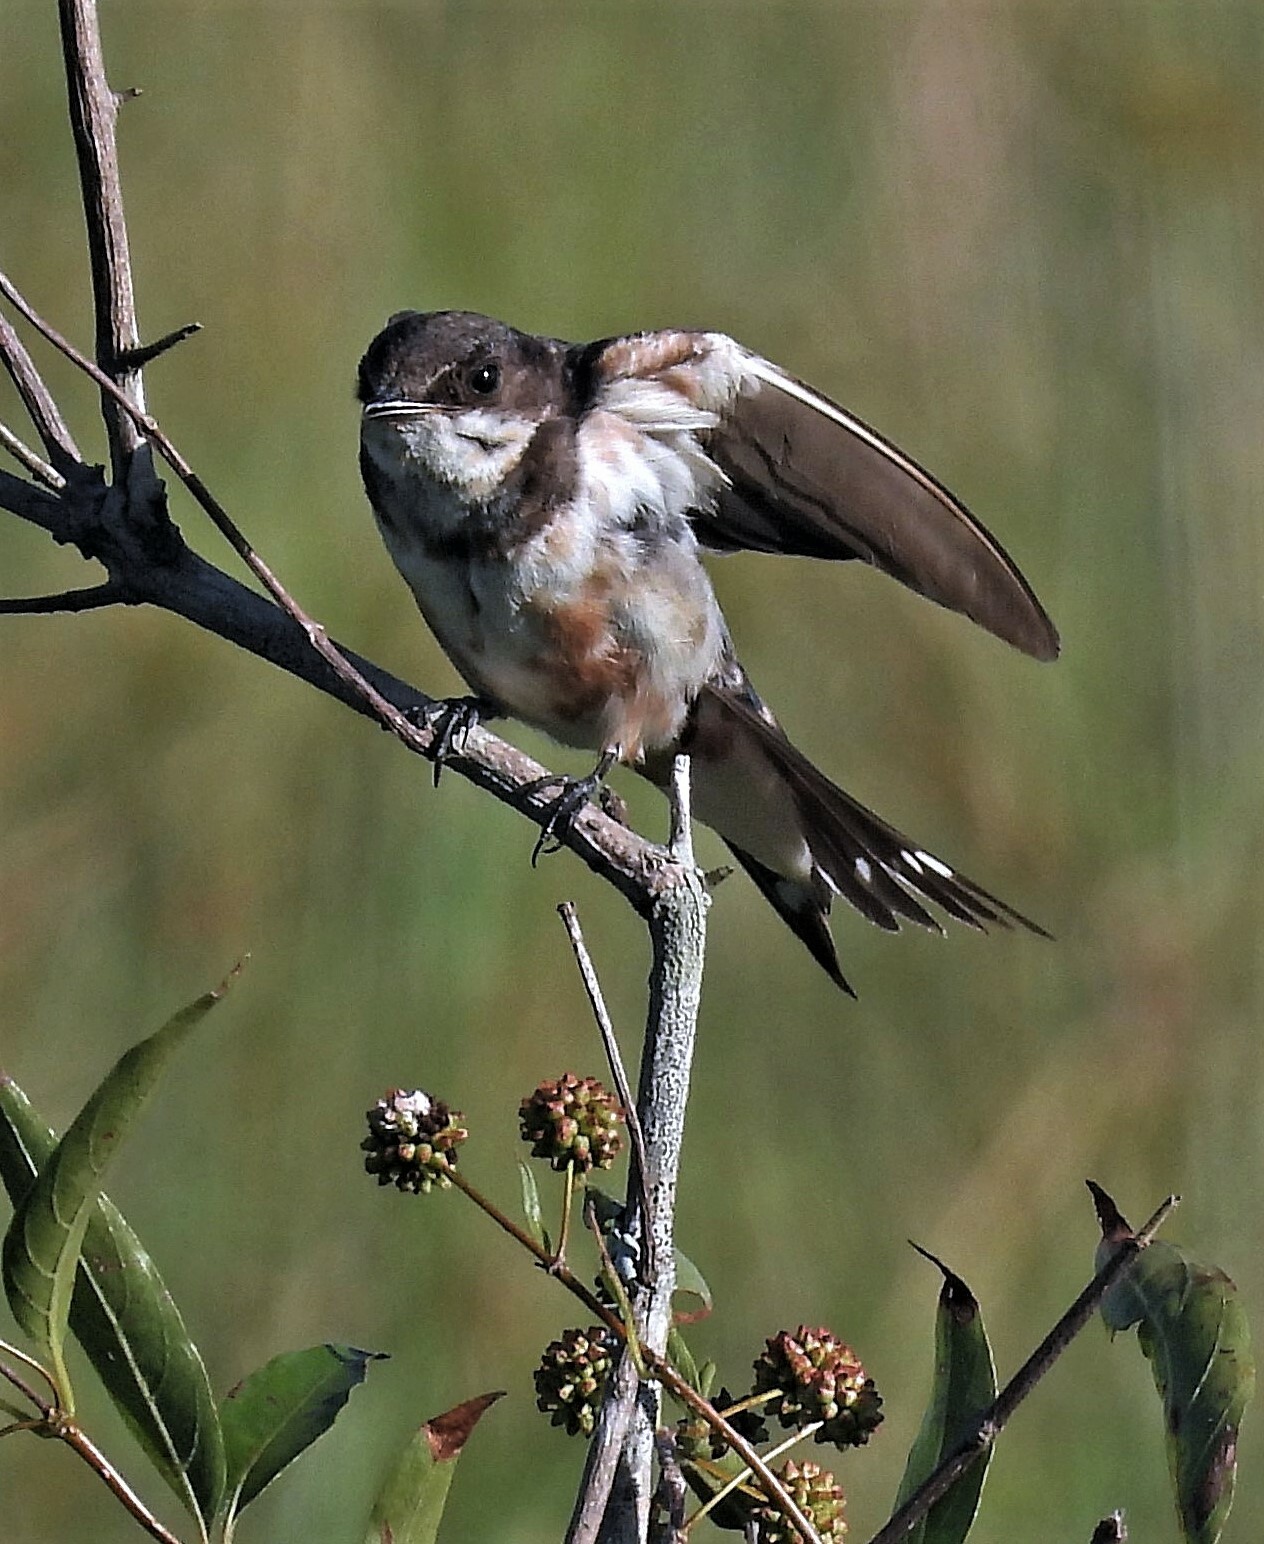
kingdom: Animalia
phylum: Chordata
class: Aves
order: Passeriformes
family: Hirundinidae
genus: Hirundo
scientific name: Hirundo rustica
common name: Barn swallow
